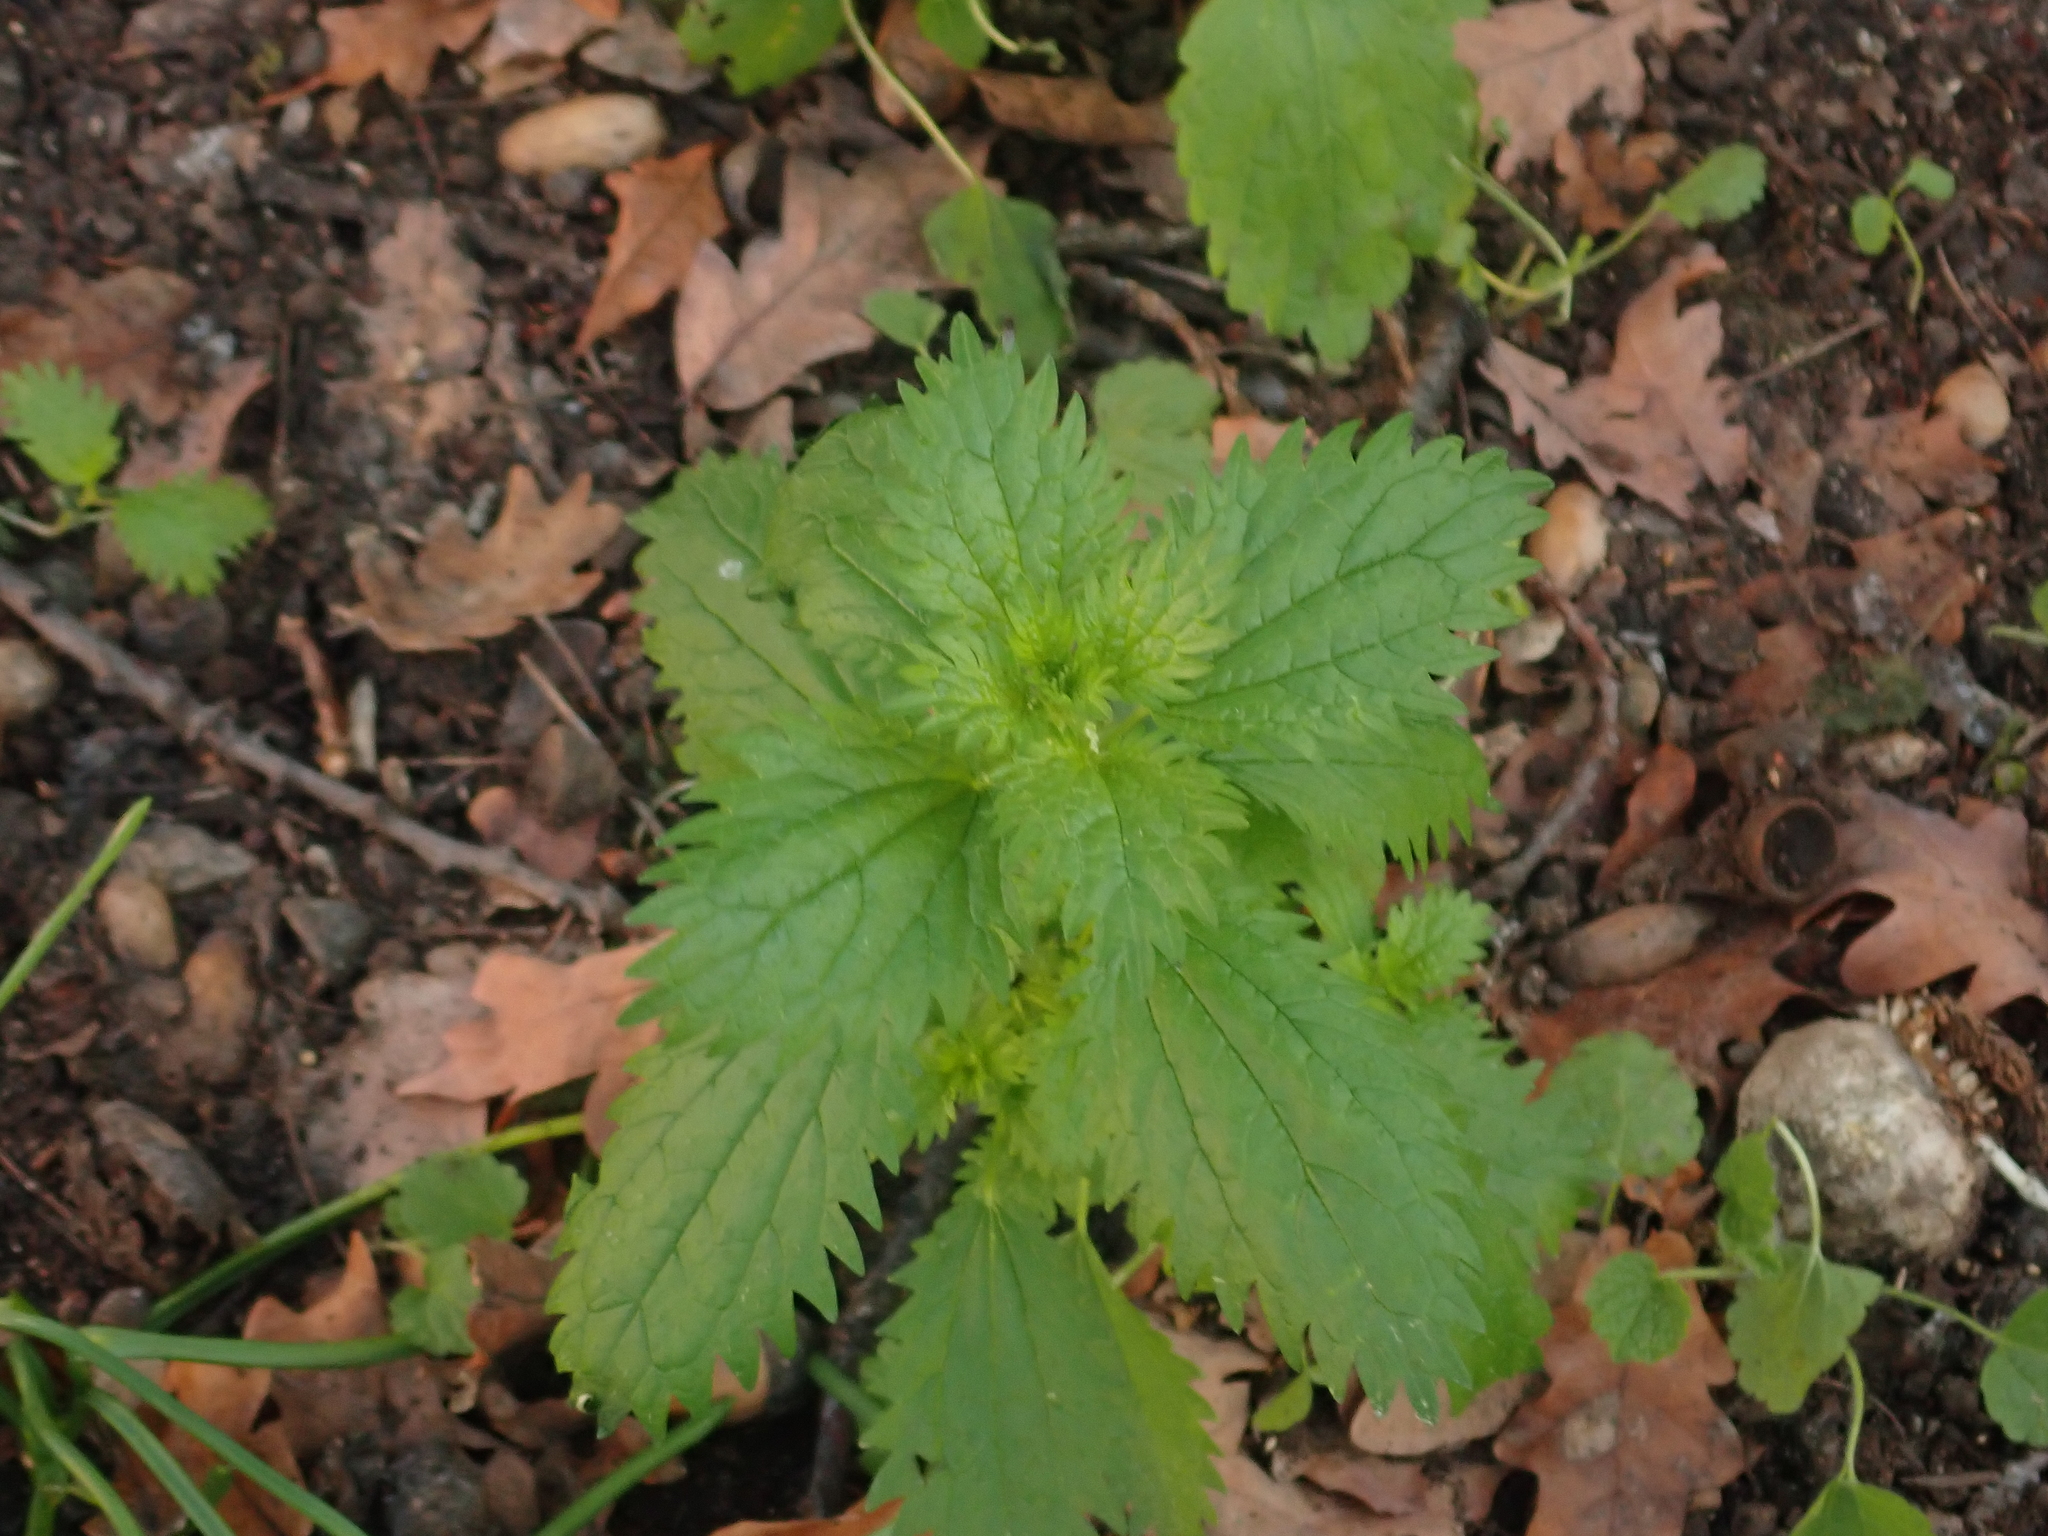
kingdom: Plantae
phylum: Tracheophyta
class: Magnoliopsida
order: Rosales
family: Urticaceae
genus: Urtica
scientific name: Urtica urens
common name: Dwarf nettle
